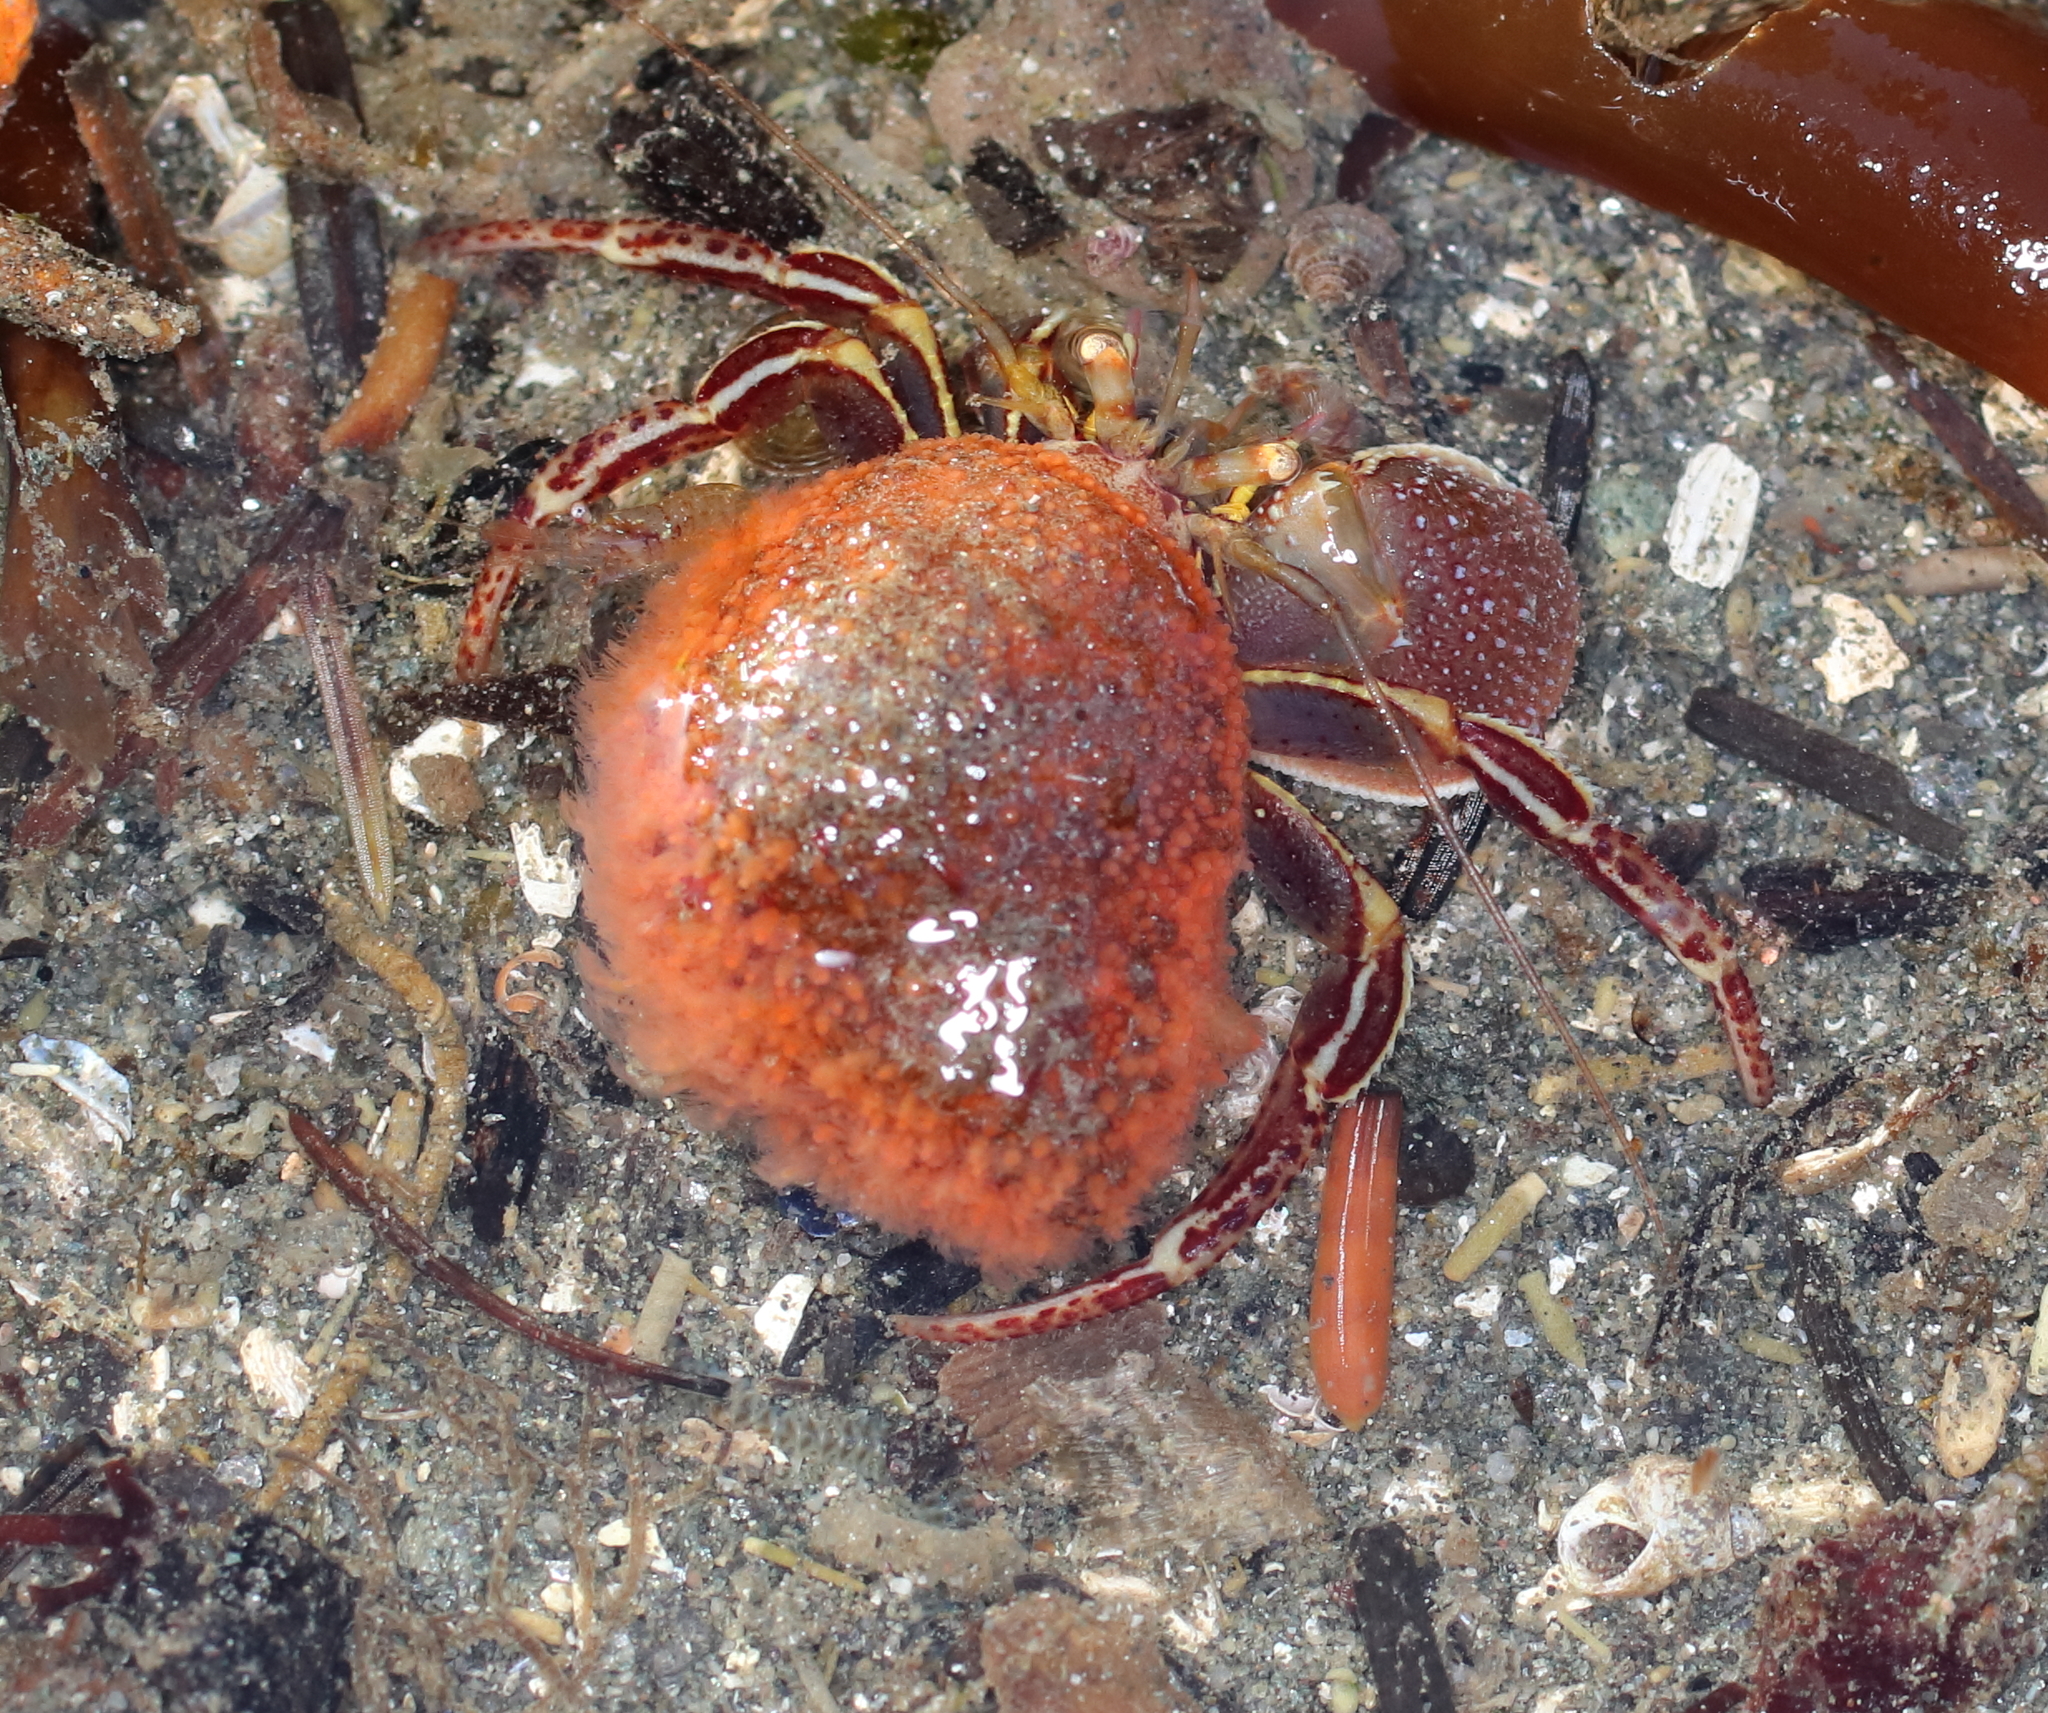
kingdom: Animalia
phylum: Arthropoda
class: Malacostraca
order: Decapoda
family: Paguridae
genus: Elassochirus
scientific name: Elassochirus tenuimanus
